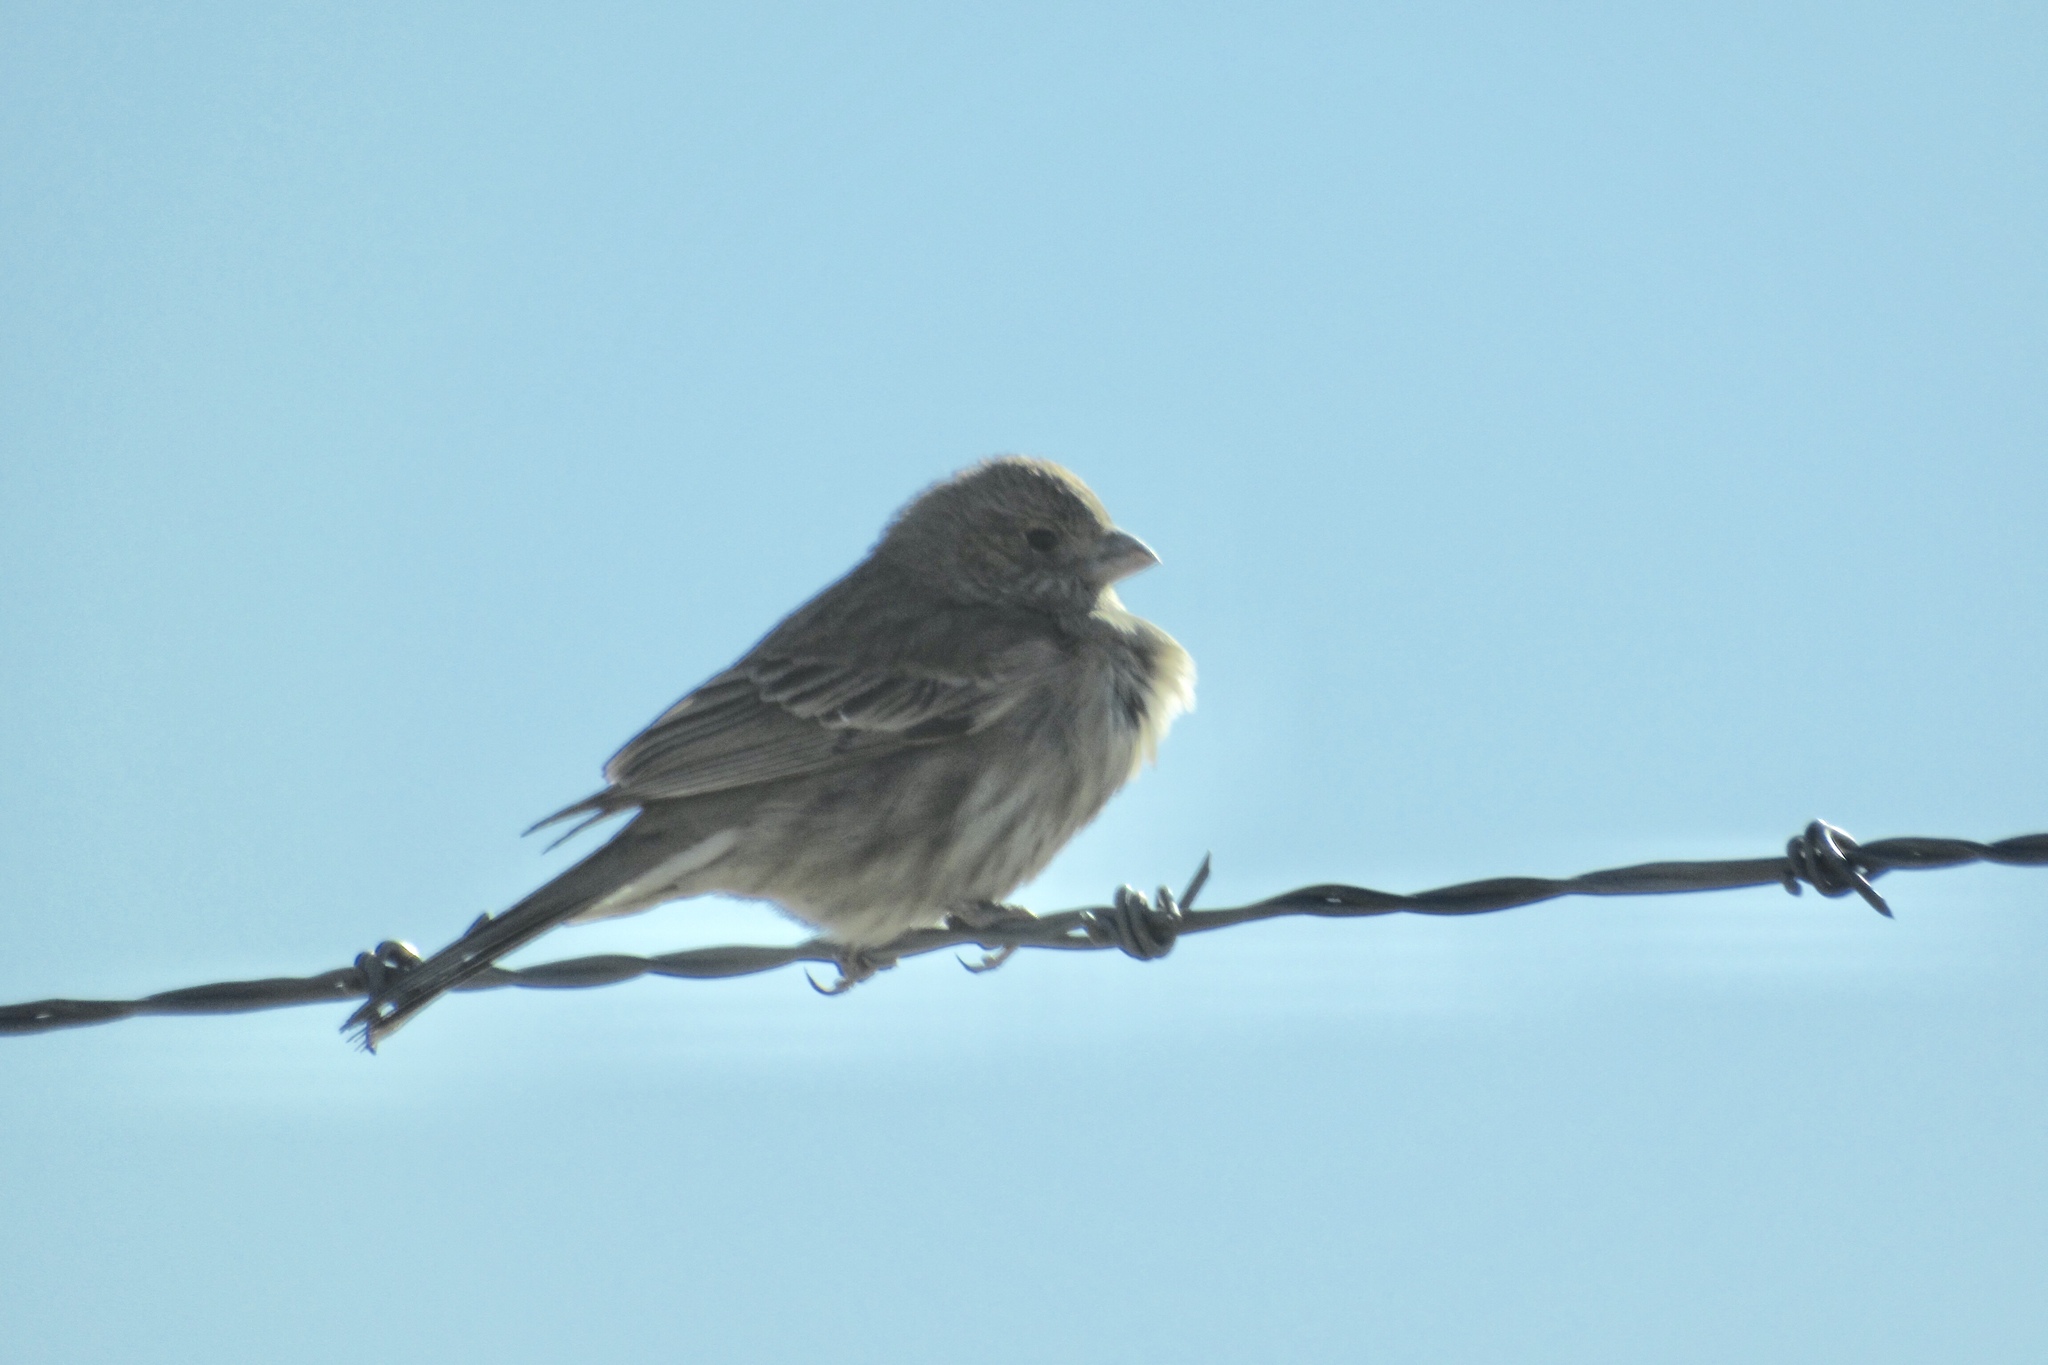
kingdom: Animalia
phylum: Chordata
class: Aves
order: Passeriformes
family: Fringillidae
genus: Haemorhous
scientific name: Haemorhous mexicanus
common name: House finch
